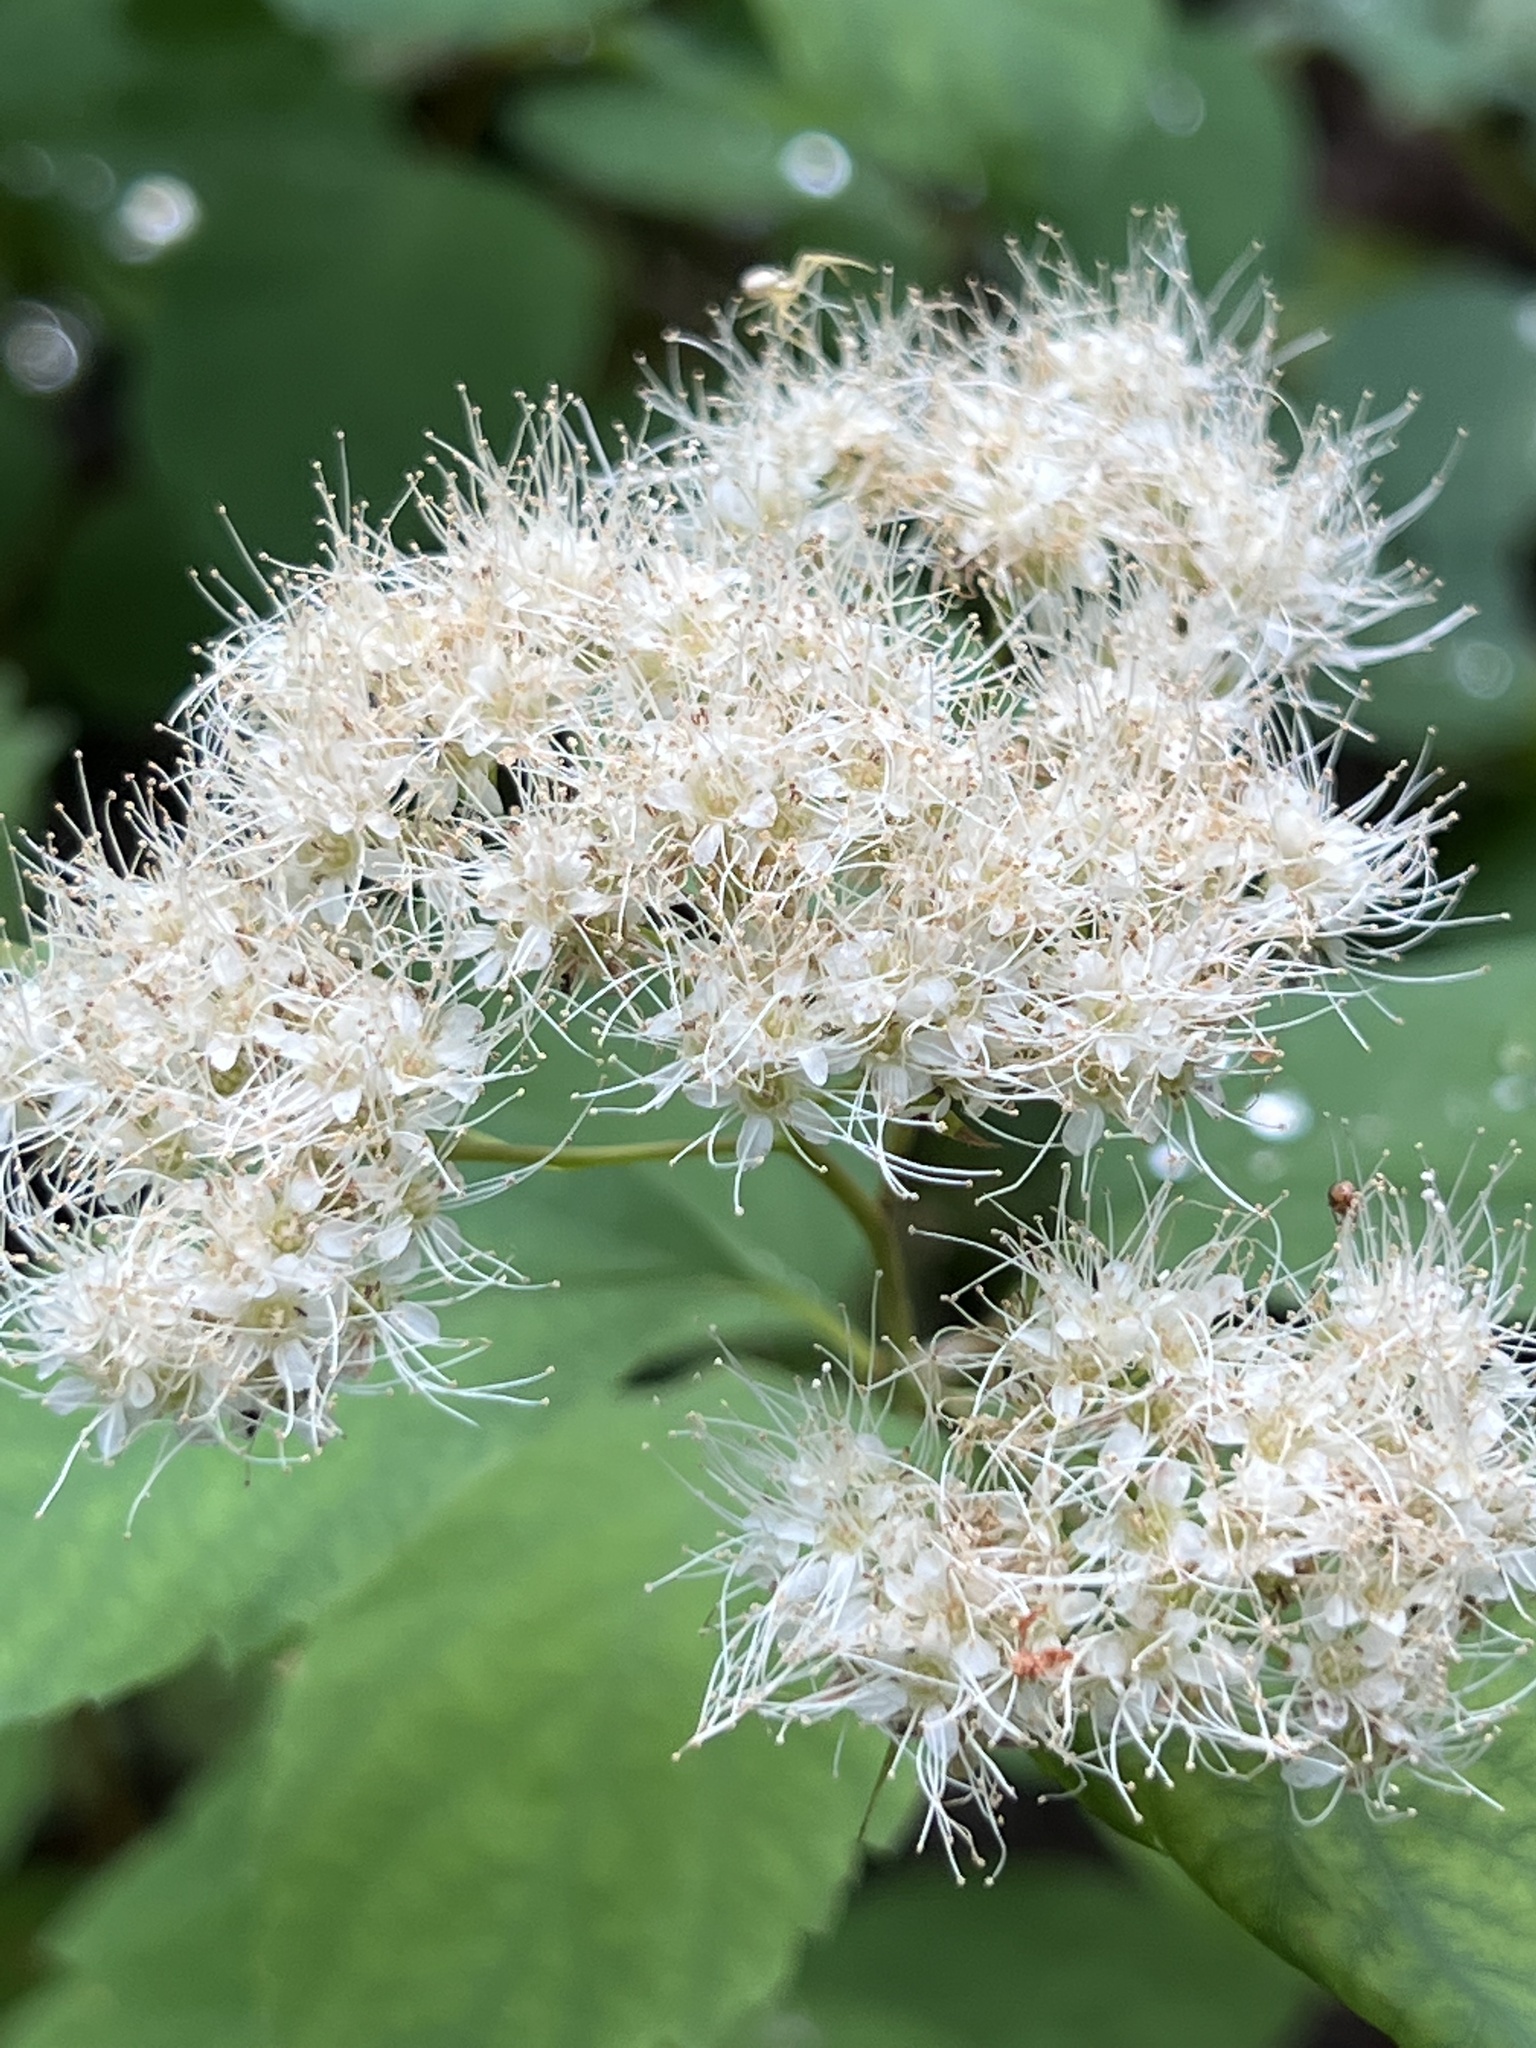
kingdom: Plantae
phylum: Tracheophyta
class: Magnoliopsida
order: Rosales
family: Rosaceae
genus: Spiraea
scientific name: Spiraea lucida
